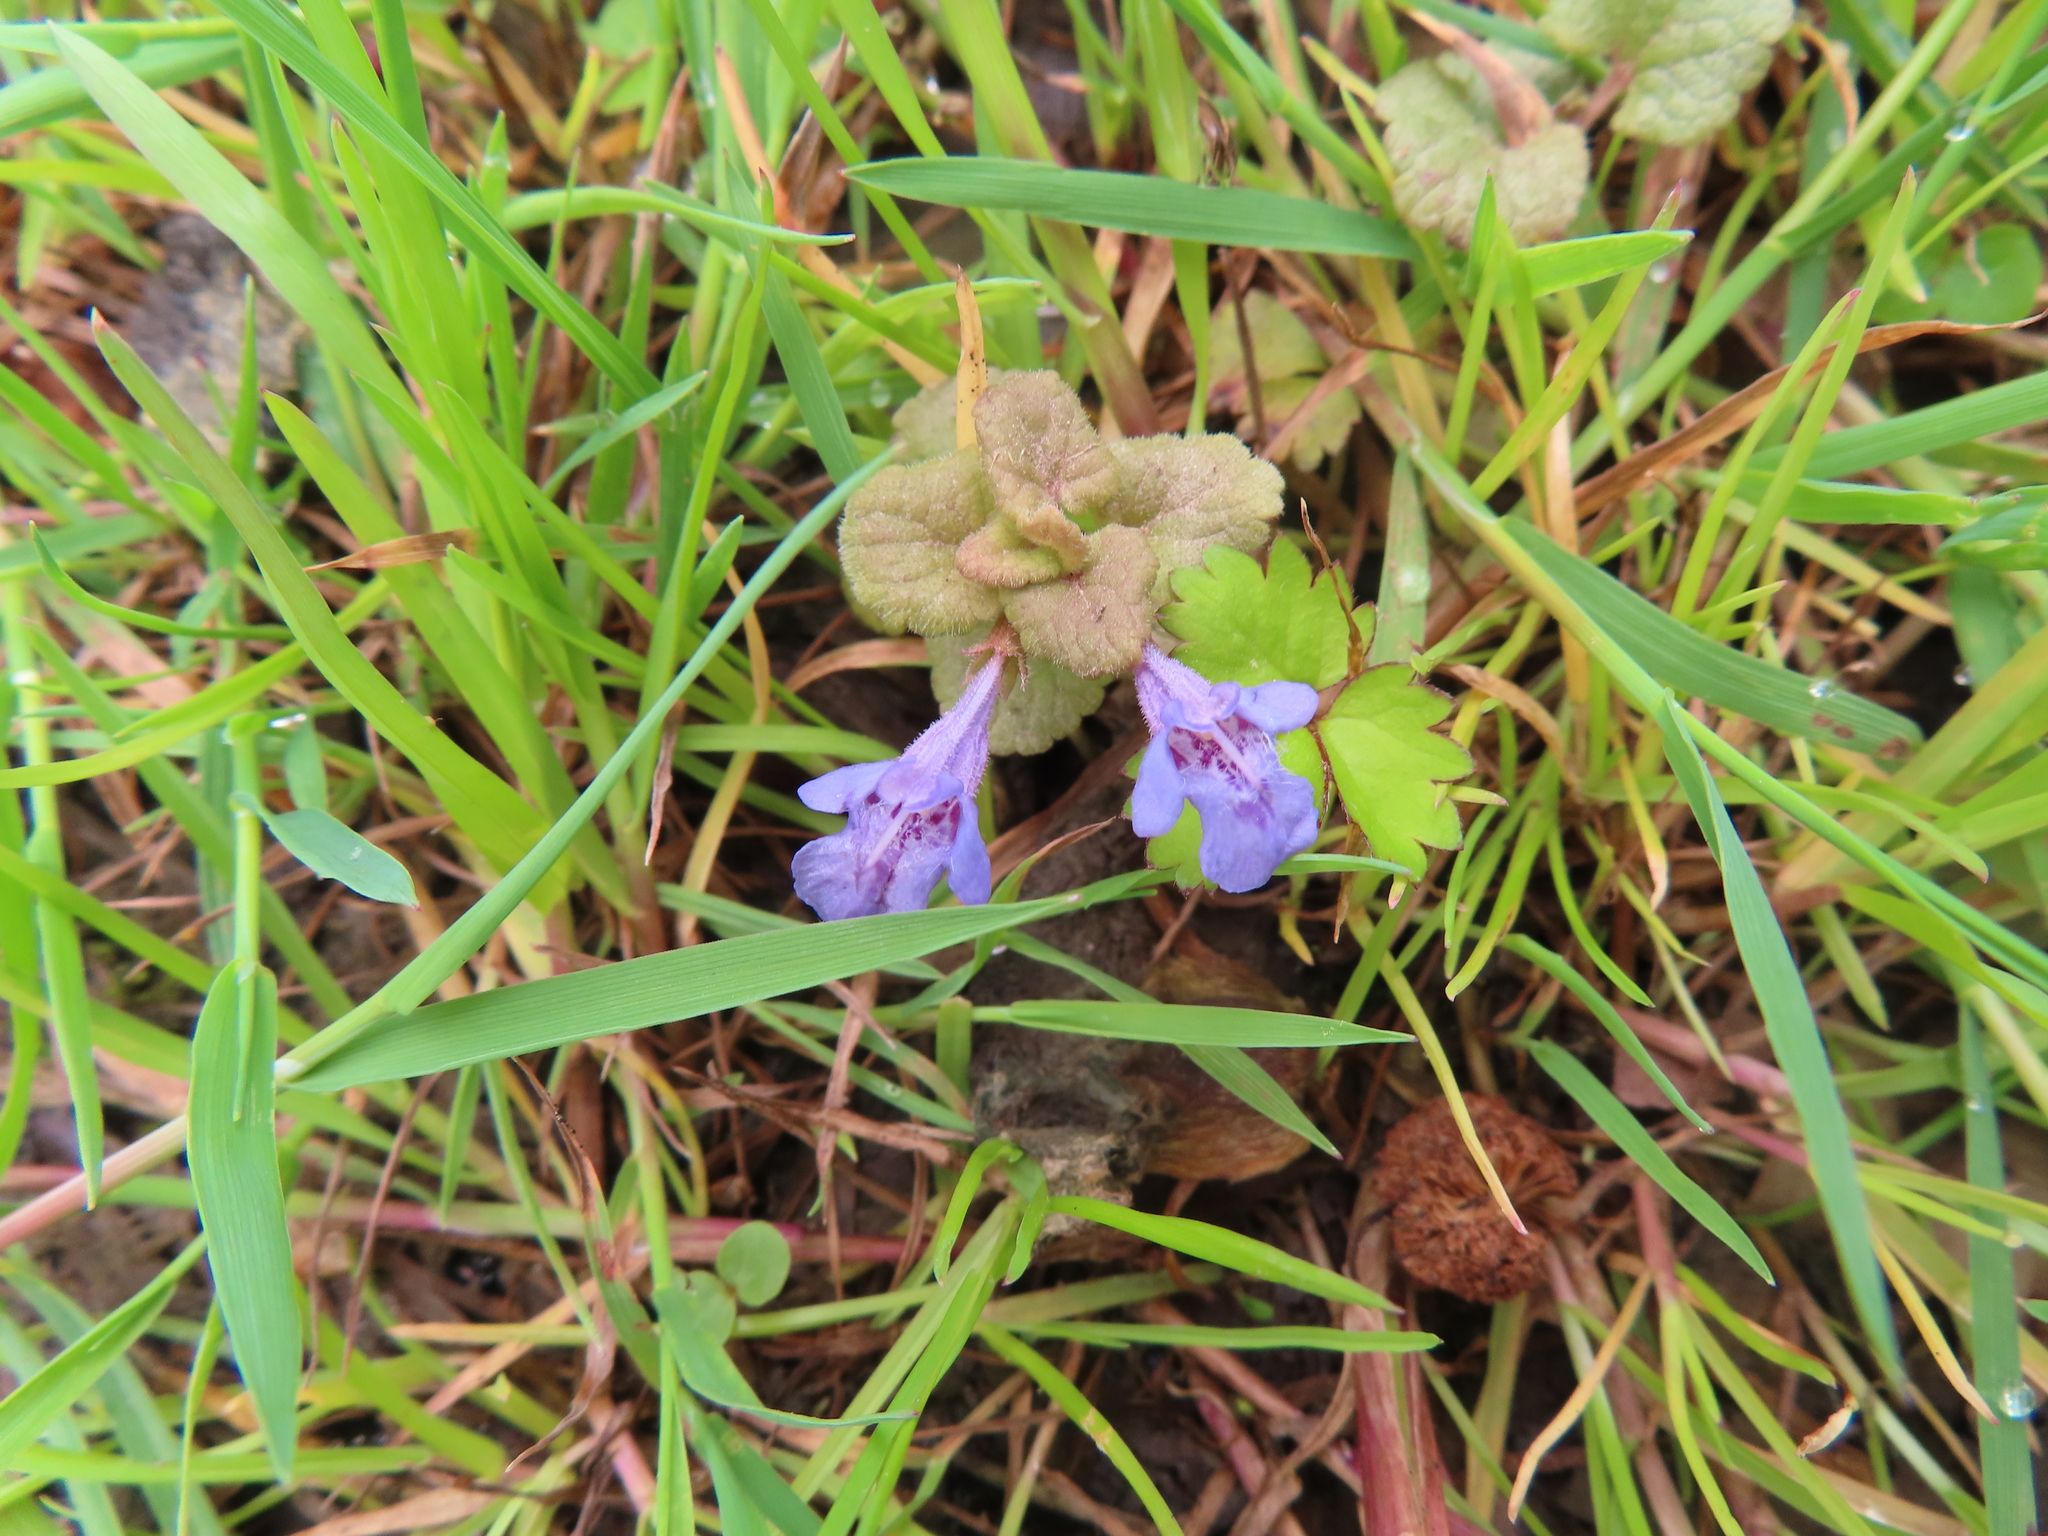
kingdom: Plantae
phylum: Tracheophyta
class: Magnoliopsida
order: Lamiales
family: Lamiaceae
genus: Glechoma
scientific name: Glechoma hederacea
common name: Ground ivy
